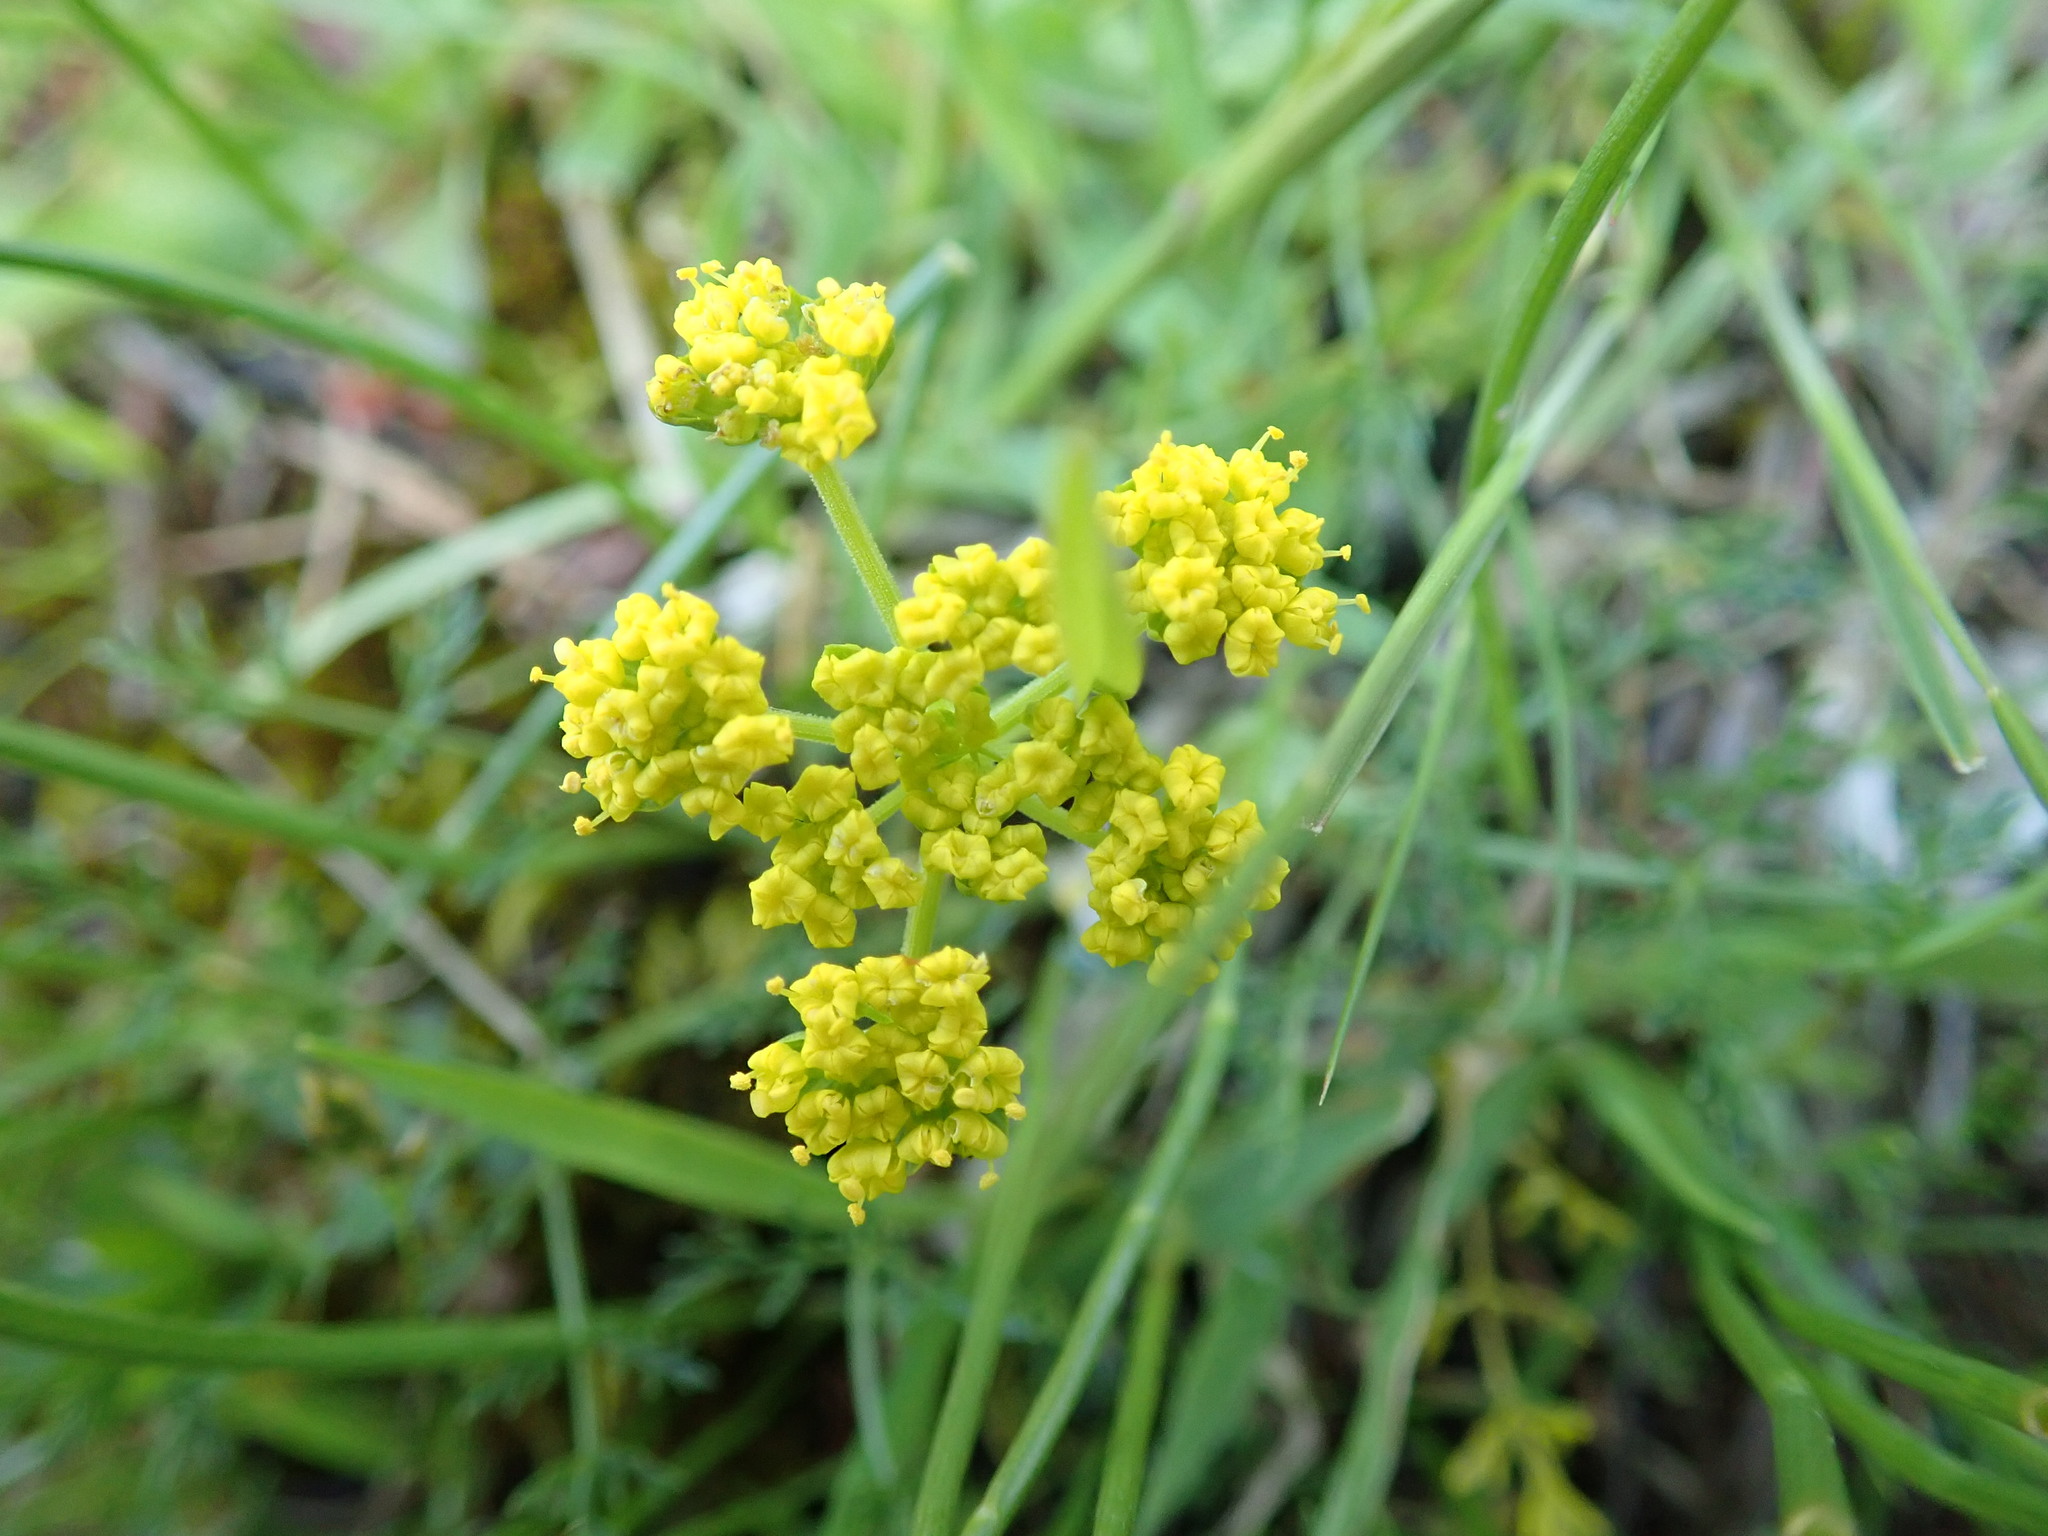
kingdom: Plantae
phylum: Tracheophyta
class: Magnoliopsida
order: Apiales
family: Apiaceae
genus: Lomatium
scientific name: Lomatium utriculatum
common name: Fine-leaf desert-parsley
